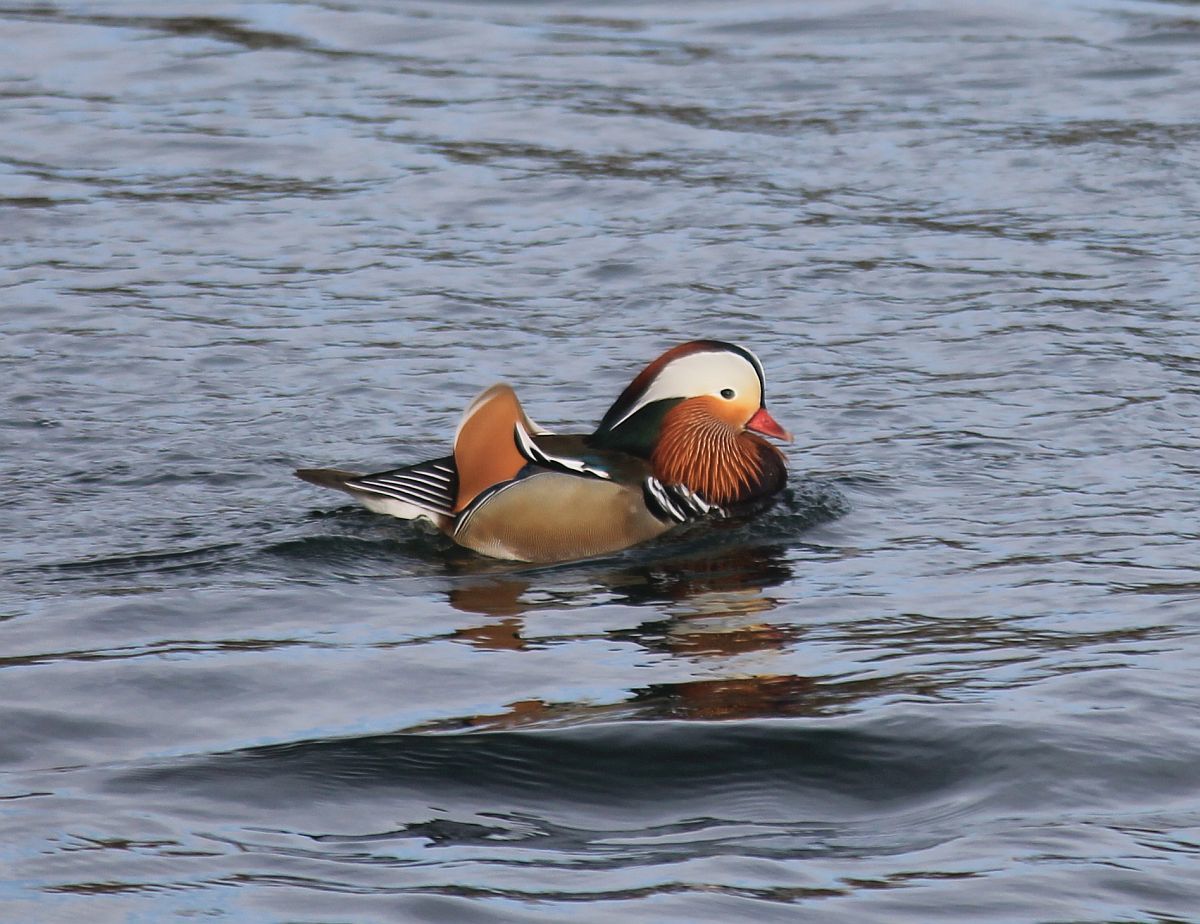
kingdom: Animalia
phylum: Chordata
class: Aves
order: Anseriformes
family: Anatidae
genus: Aix
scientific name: Aix galericulata
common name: Mandarin duck
